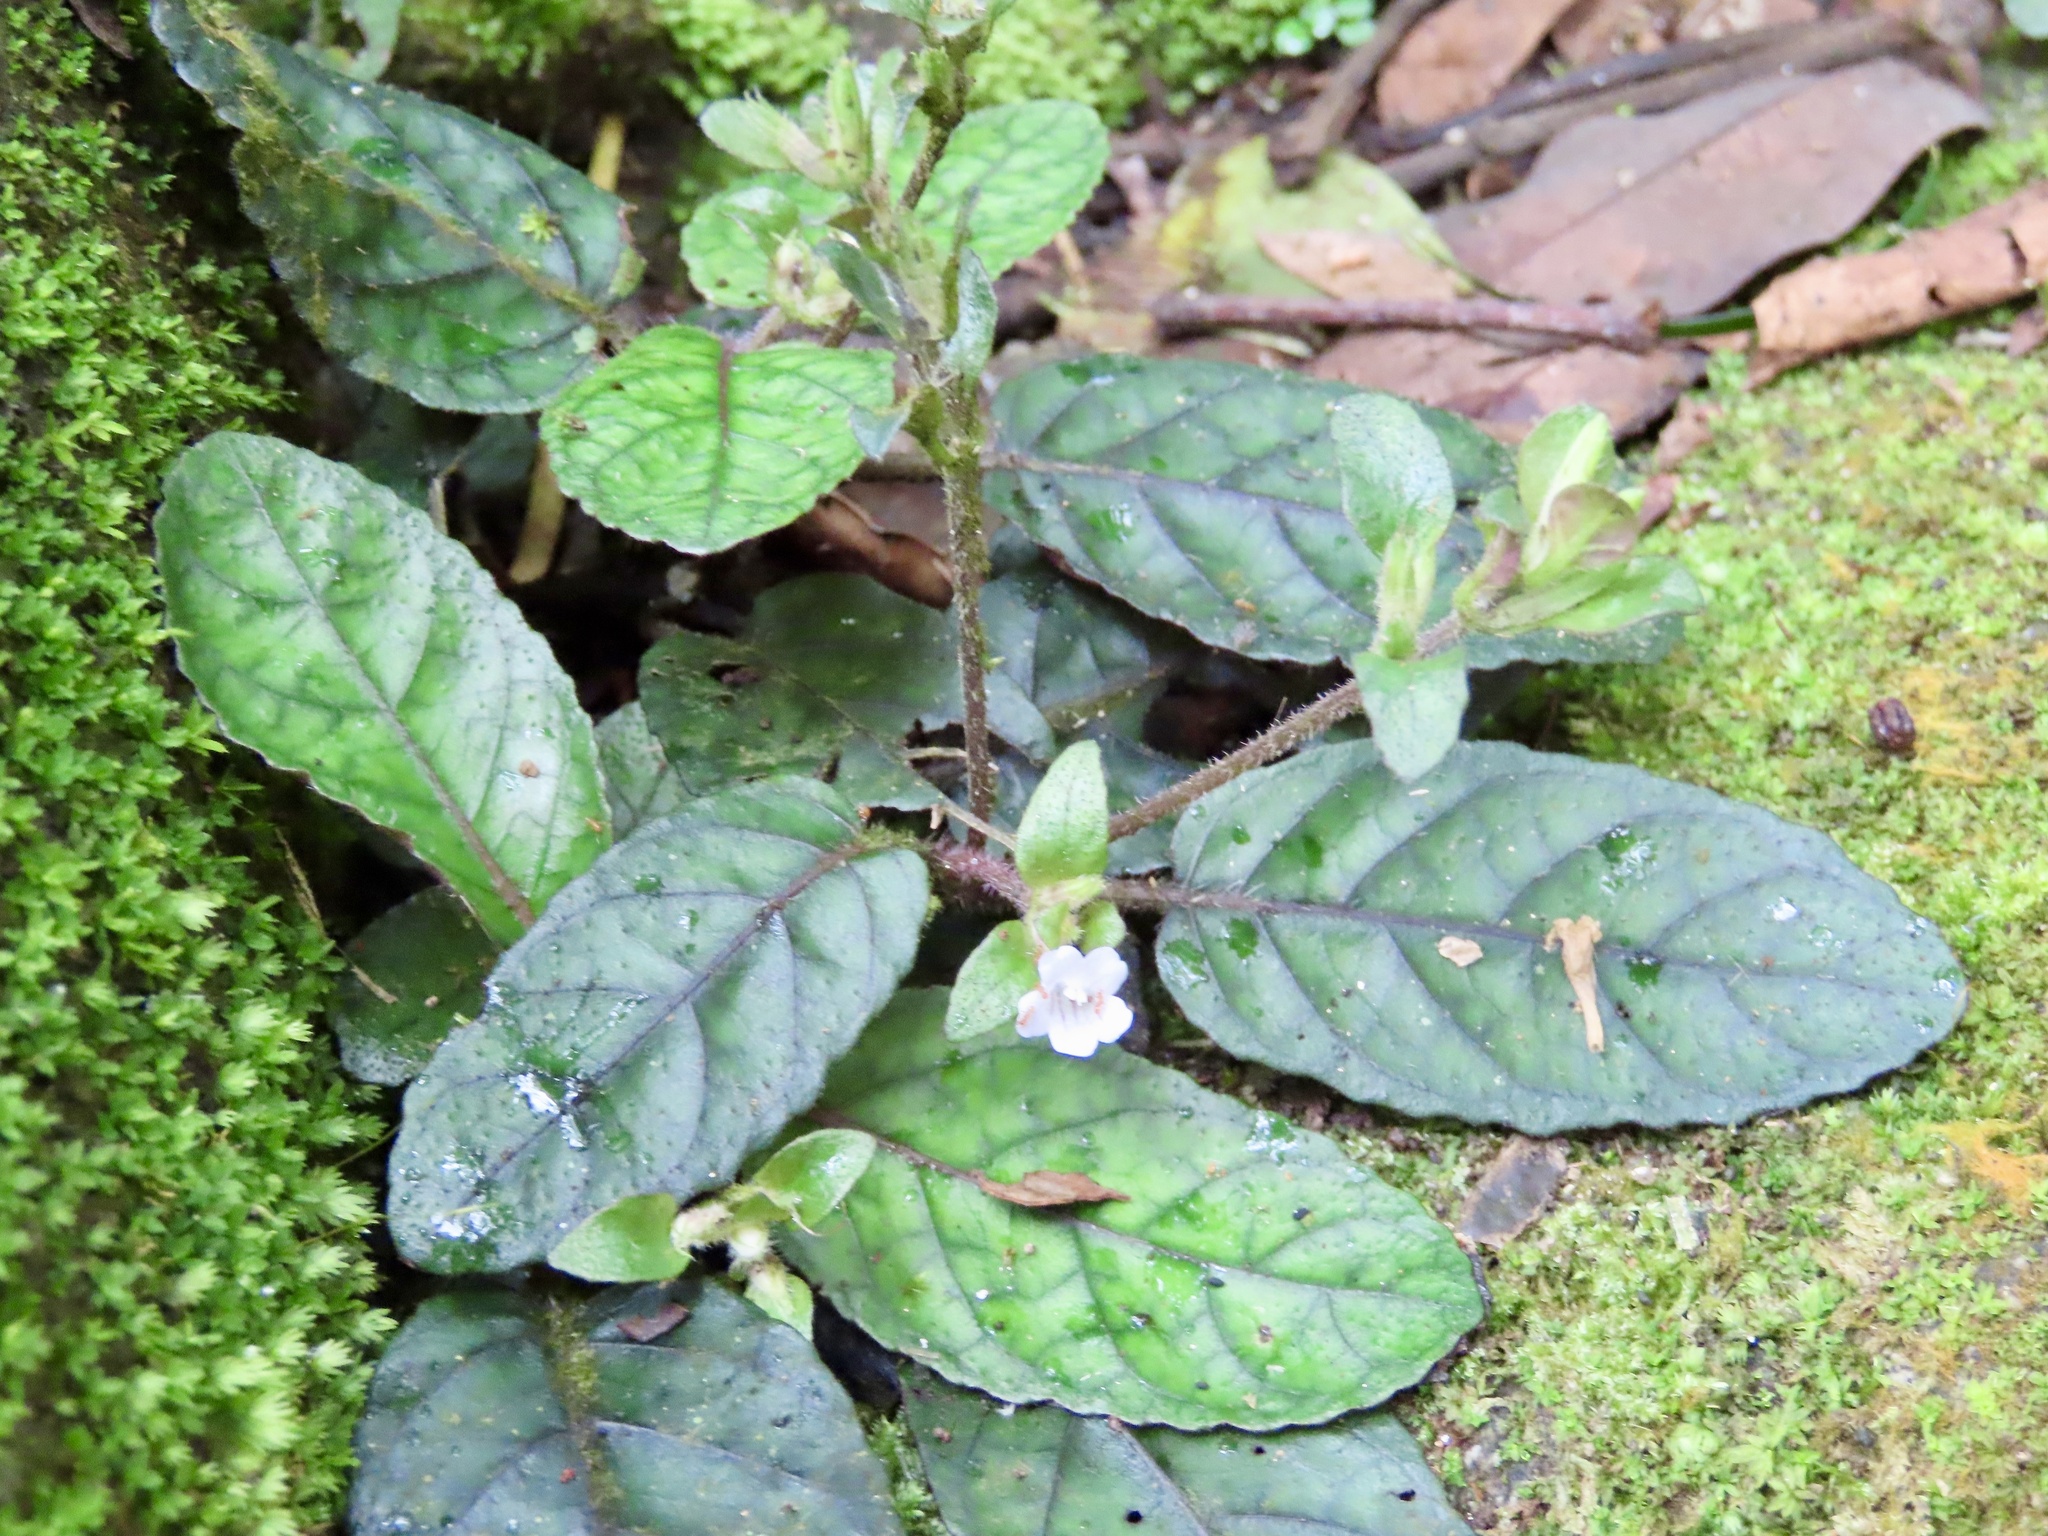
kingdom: Plantae
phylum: Tracheophyta
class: Magnoliopsida
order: Lamiales
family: Acanthaceae
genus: Strobilanthes
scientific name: Strobilanthes reptans
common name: Acanthaceae
